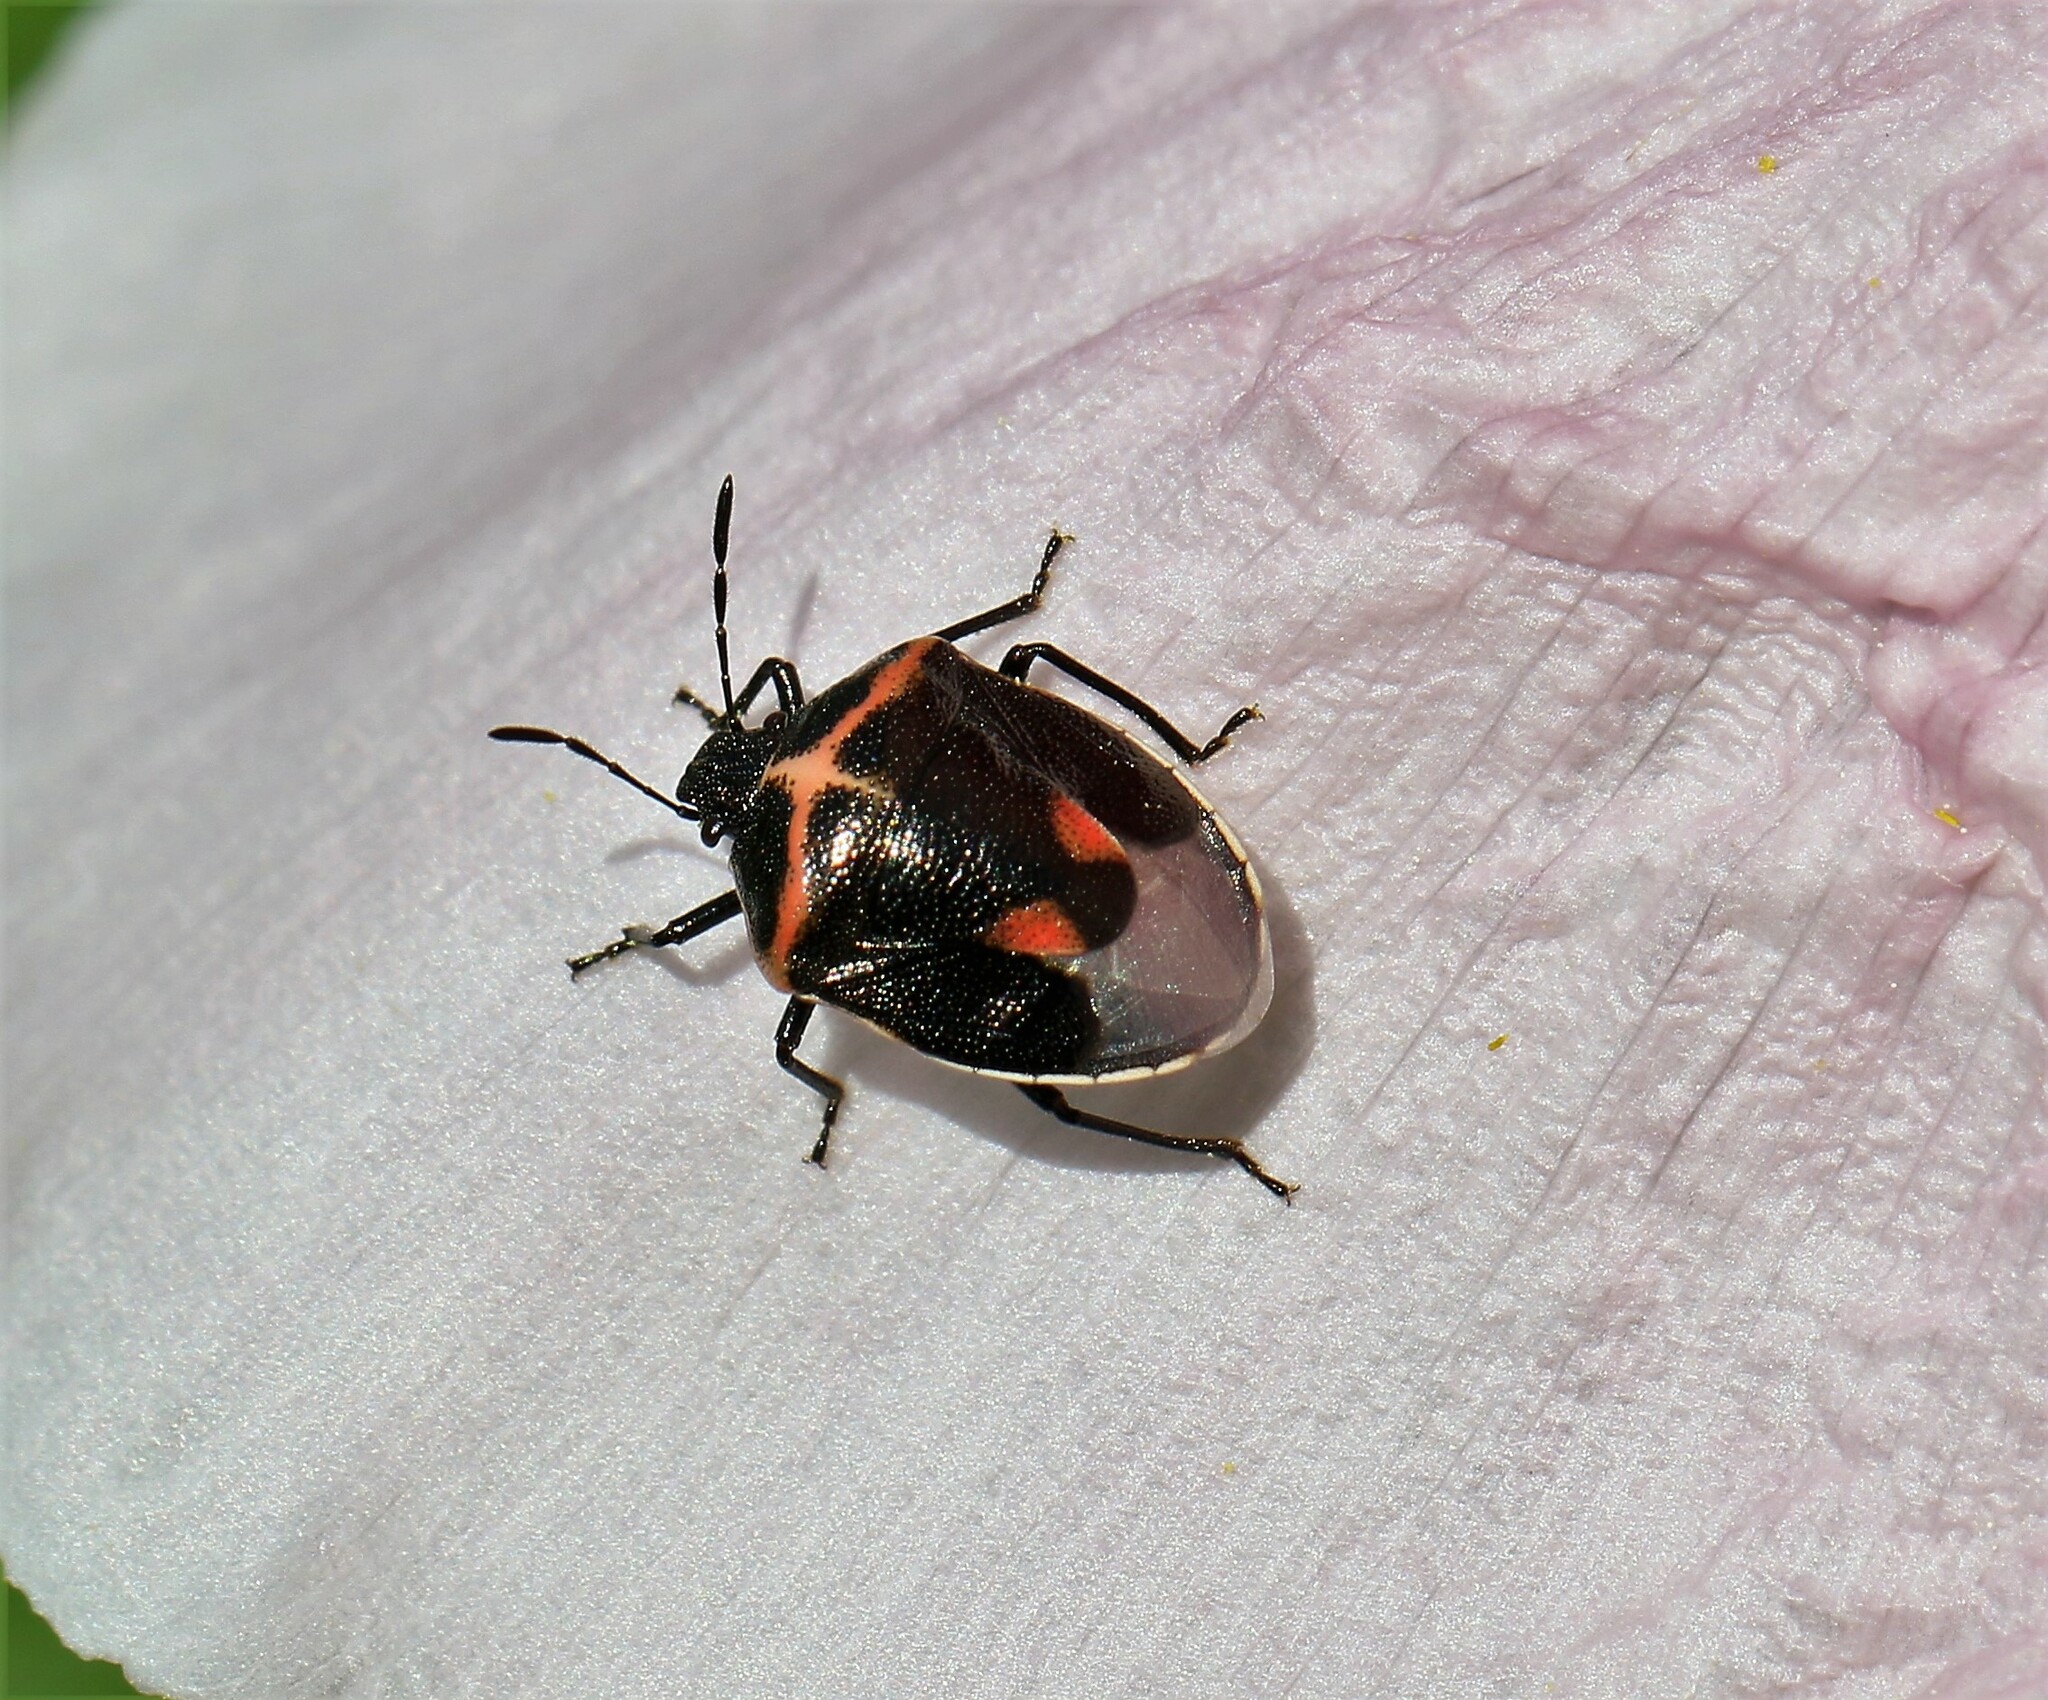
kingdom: Animalia
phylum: Arthropoda
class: Insecta
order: Hemiptera
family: Pentatomidae
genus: Cosmopepla
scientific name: Cosmopepla lintneriana
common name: Twice-stabbed stink bug
